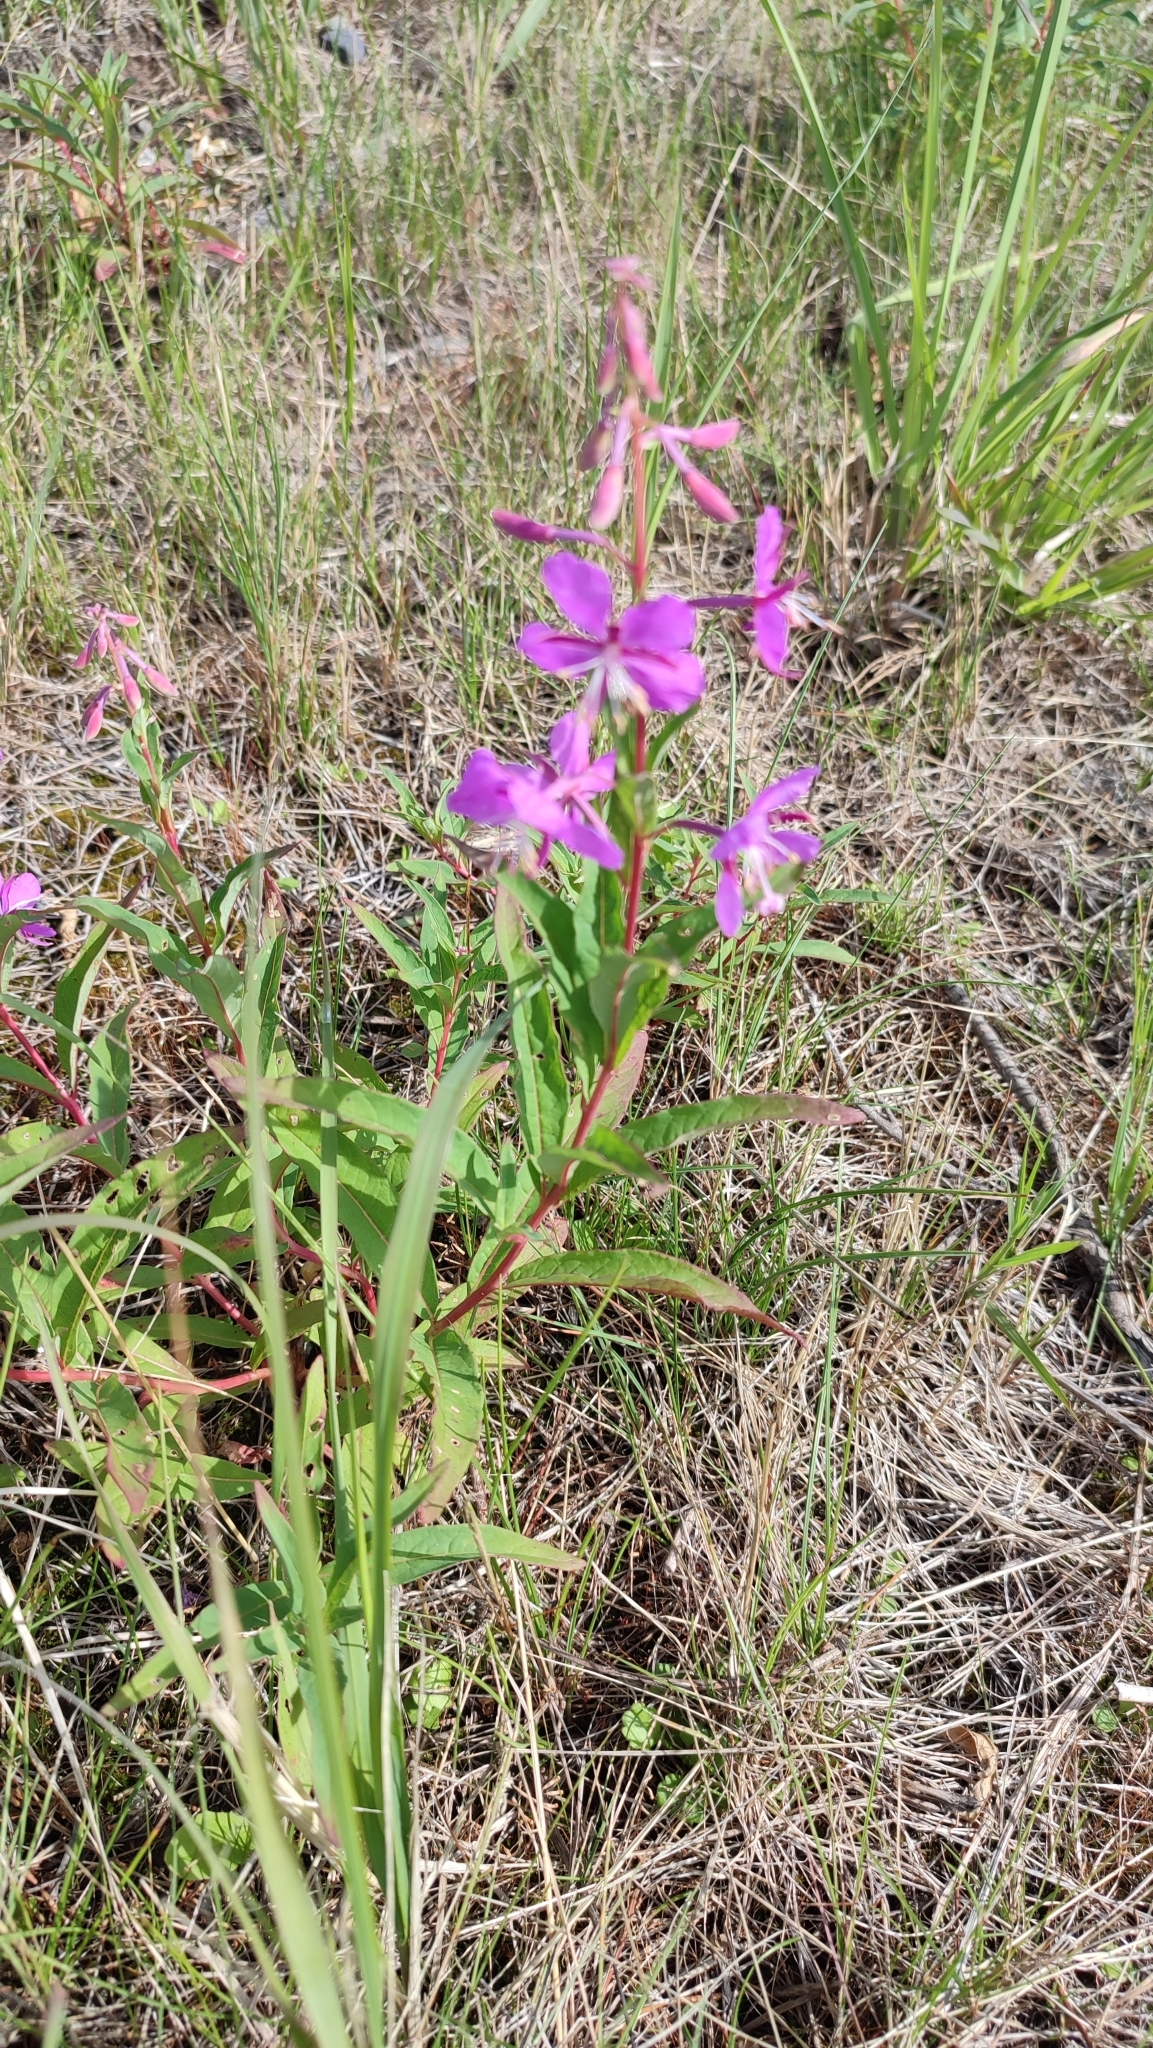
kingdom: Plantae
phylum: Tracheophyta
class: Magnoliopsida
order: Myrtales
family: Onagraceae
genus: Chamaenerion
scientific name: Chamaenerion angustifolium
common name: Fireweed
